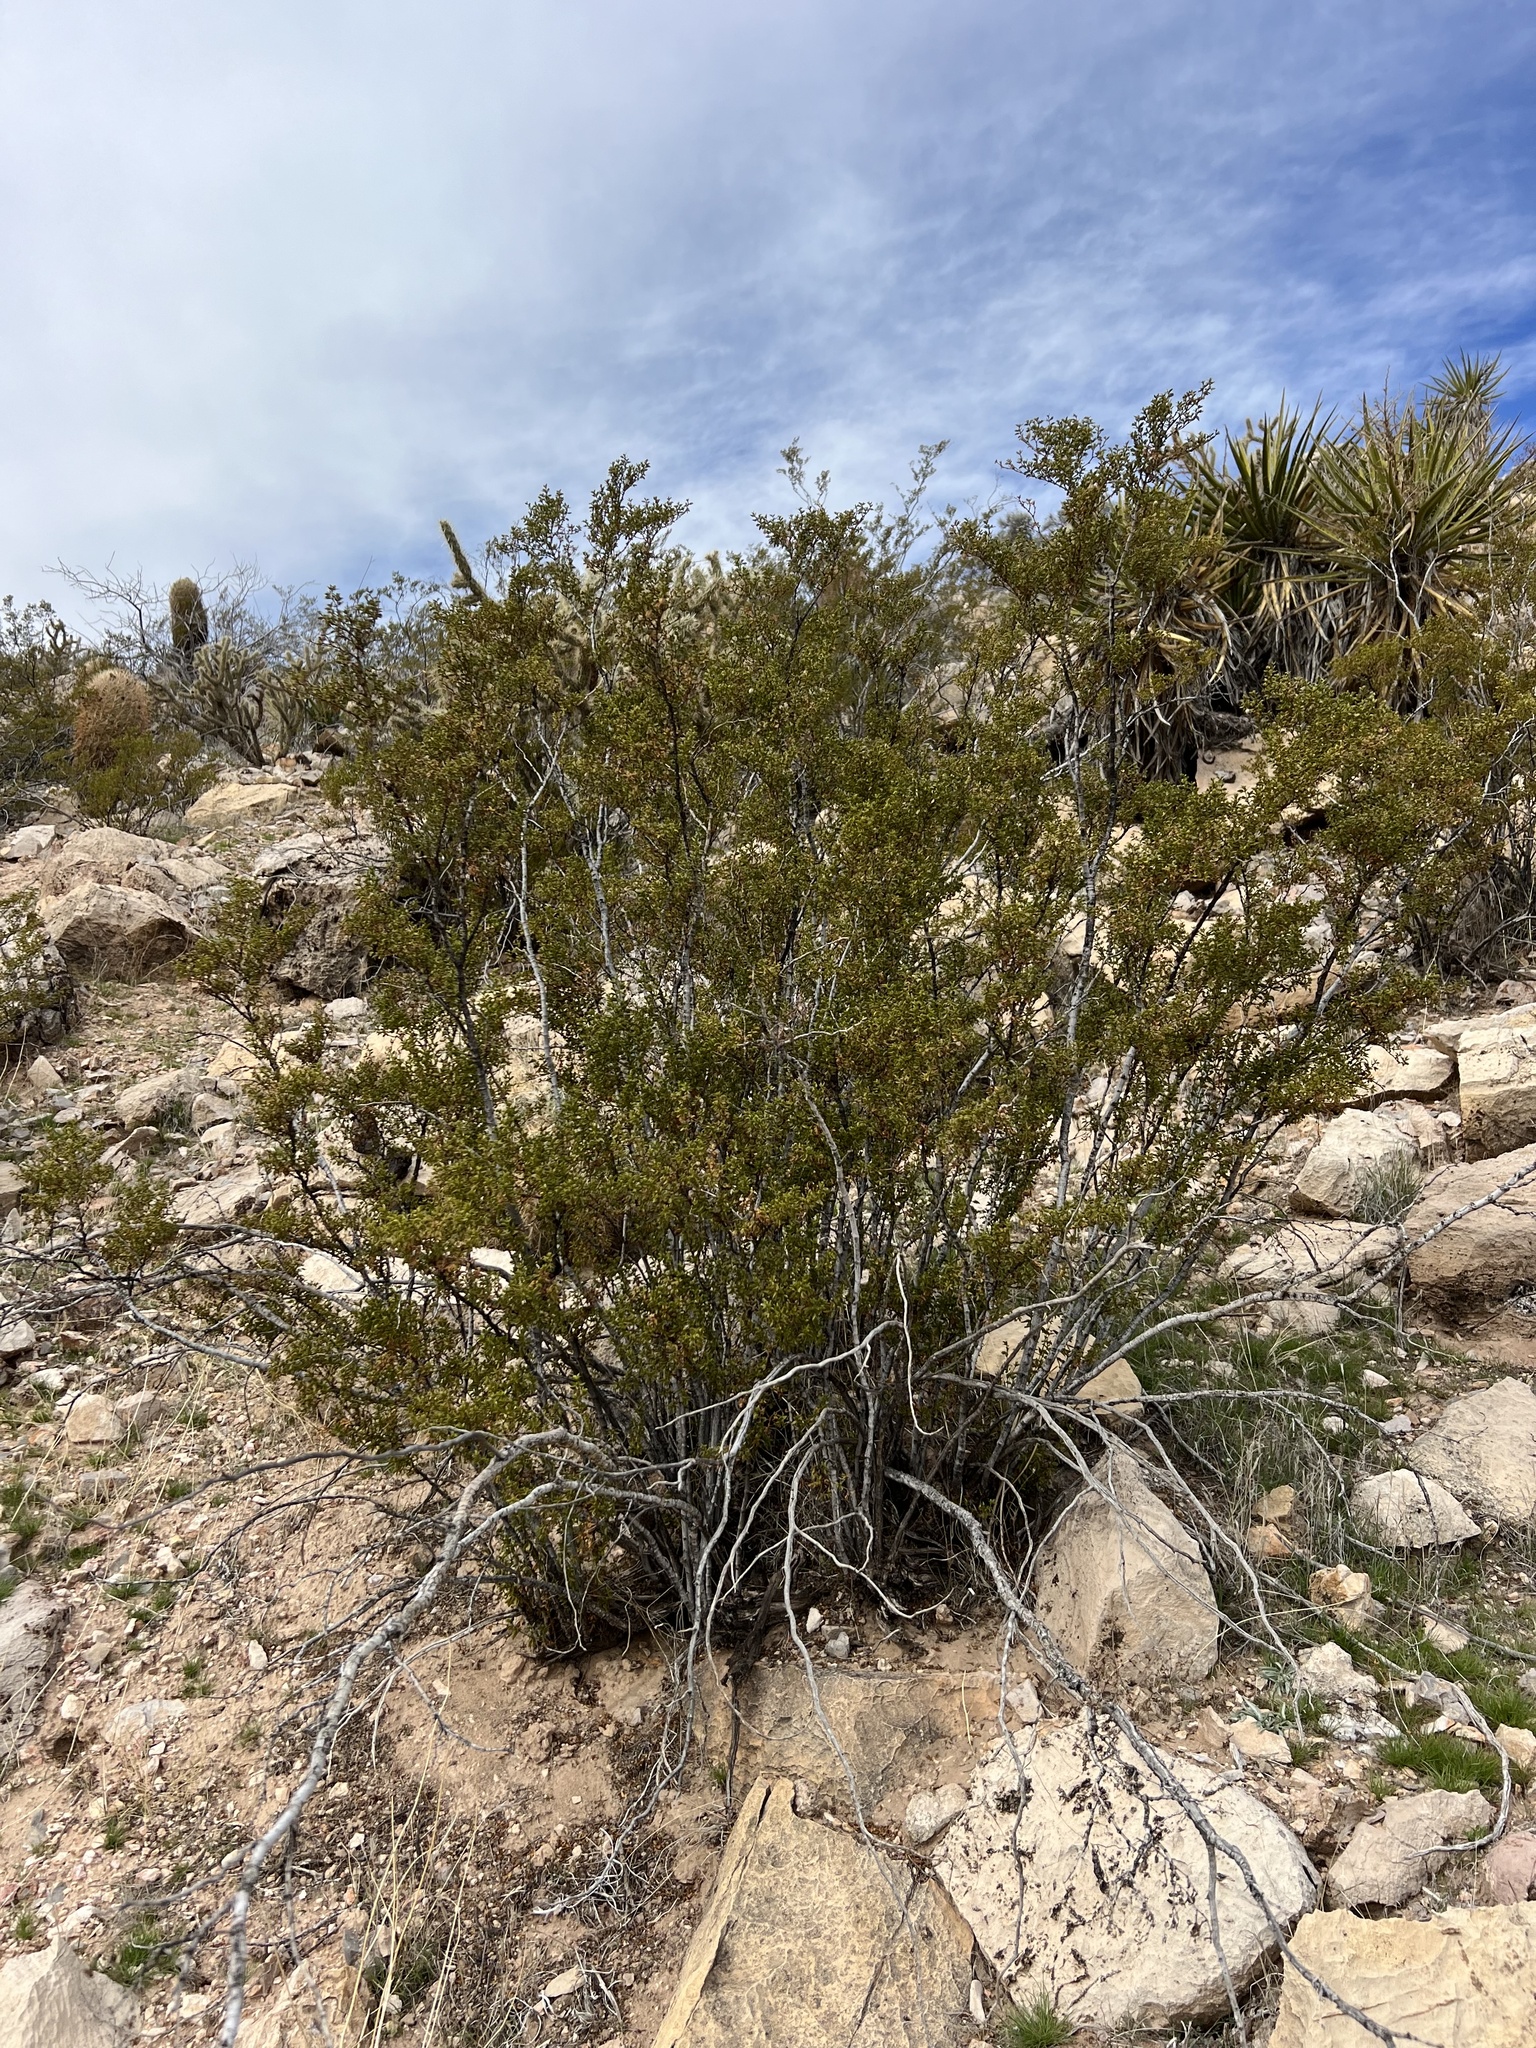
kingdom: Plantae
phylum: Tracheophyta
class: Magnoliopsida
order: Zygophyllales
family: Zygophyllaceae
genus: Larrea
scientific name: Larrea tridentata
